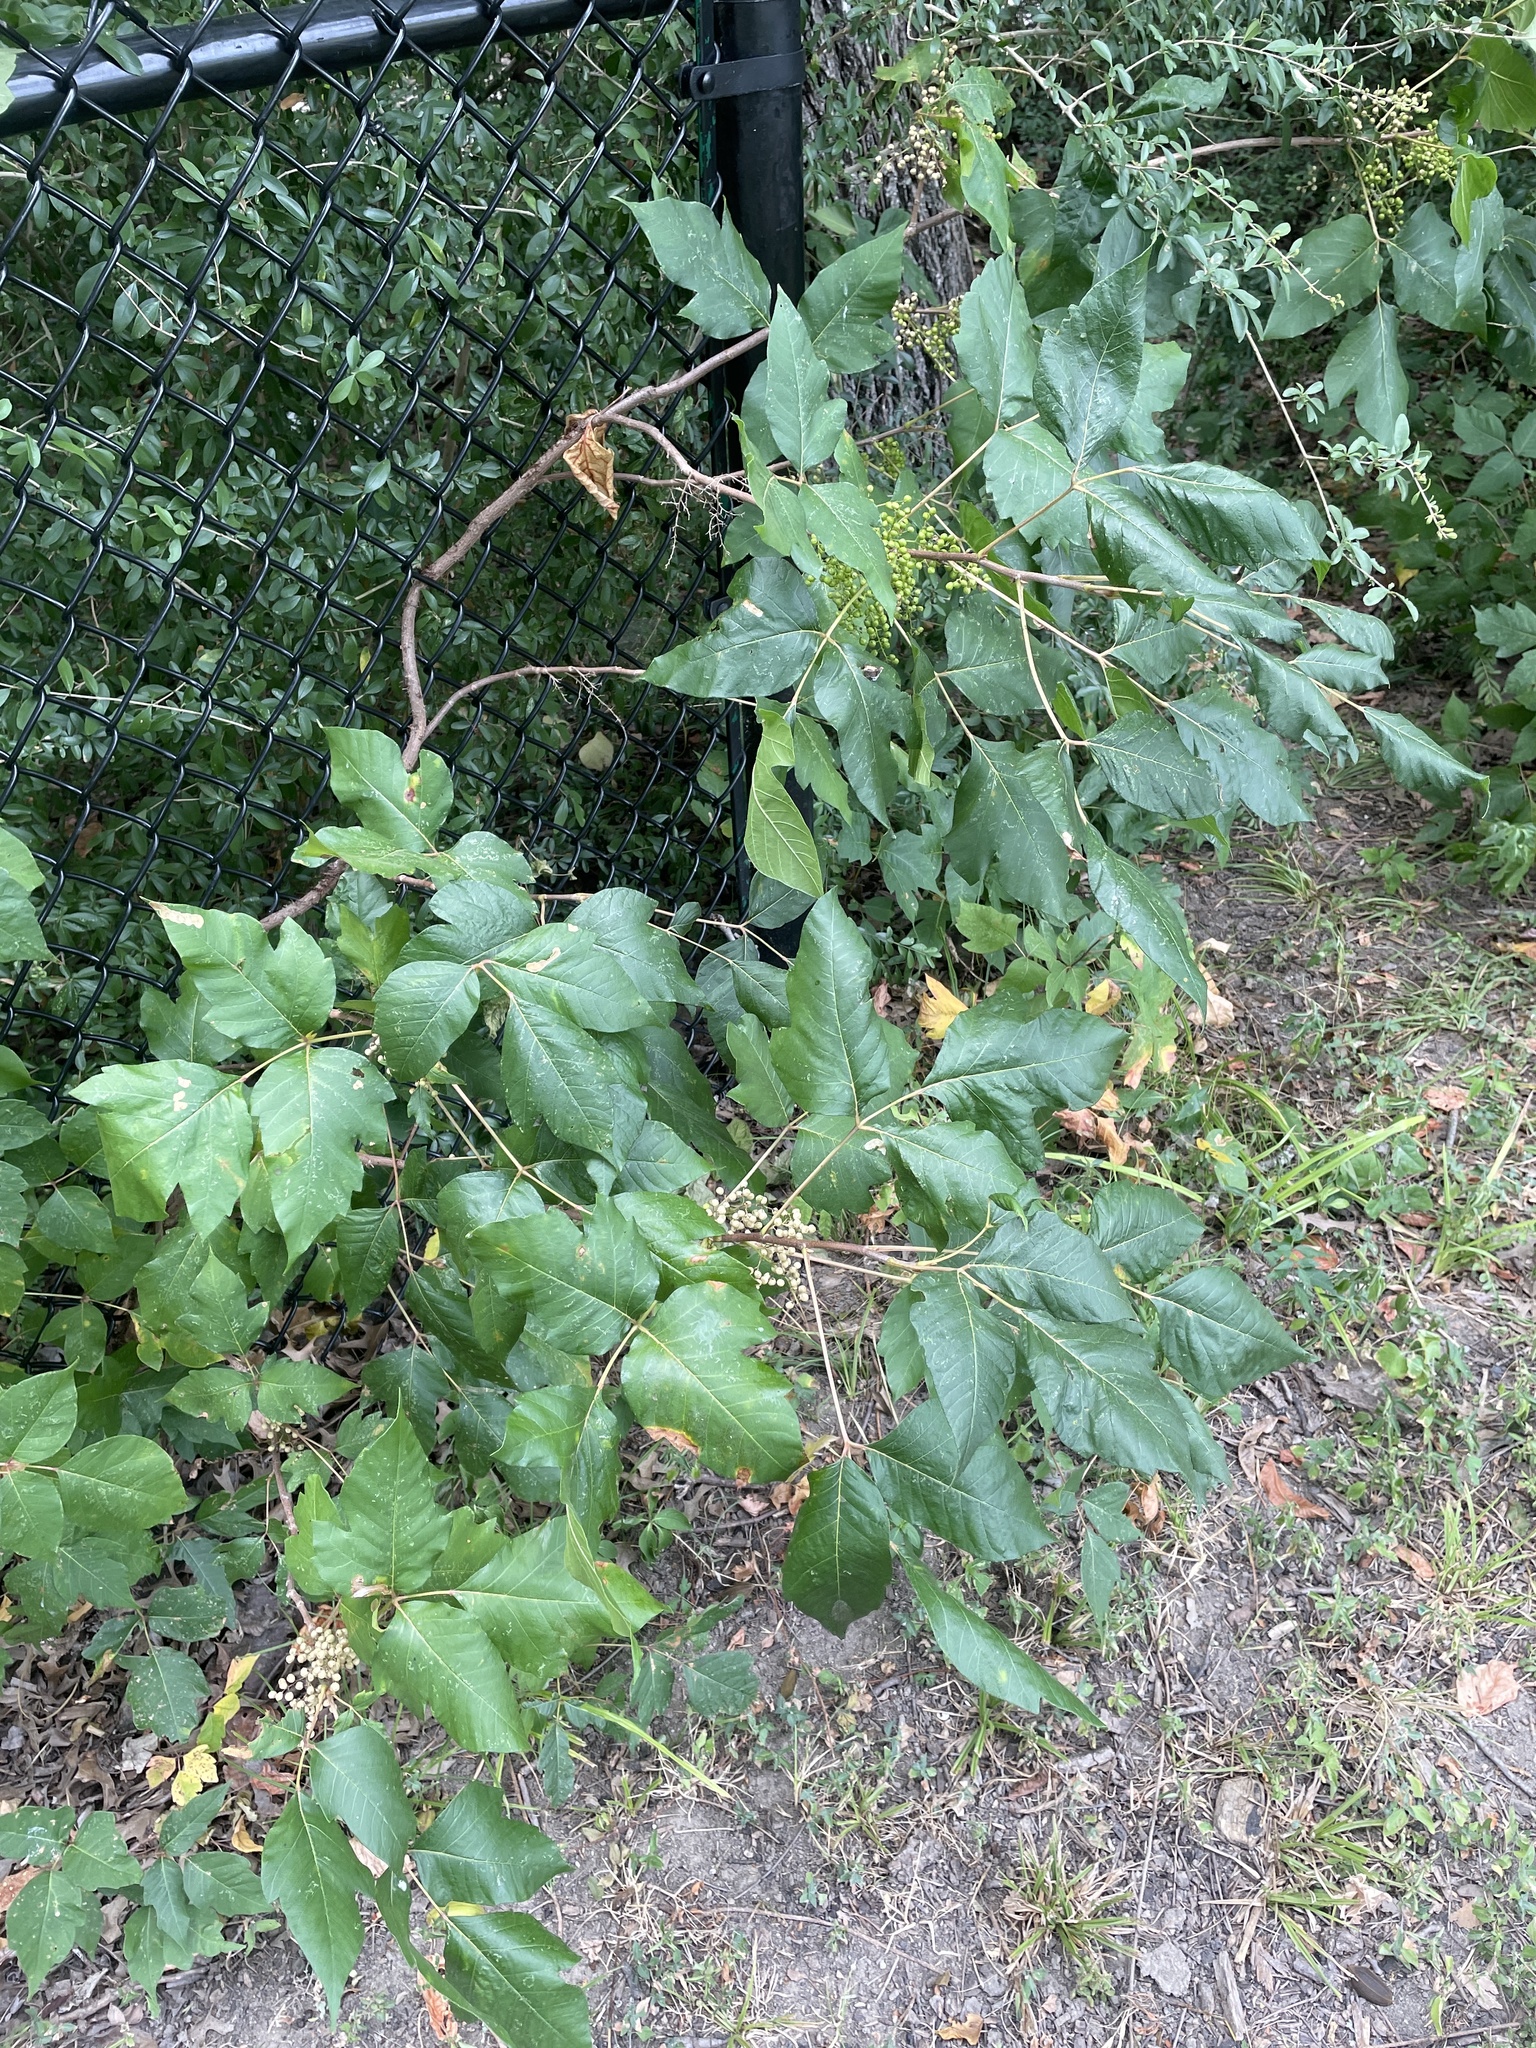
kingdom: Plantae
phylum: Tracheophyta
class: Magnoliopsida
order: Sapindales
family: Anacardiaceae
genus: Toxicodendron
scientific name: Toxicodendron radicans
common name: Poison ivy
